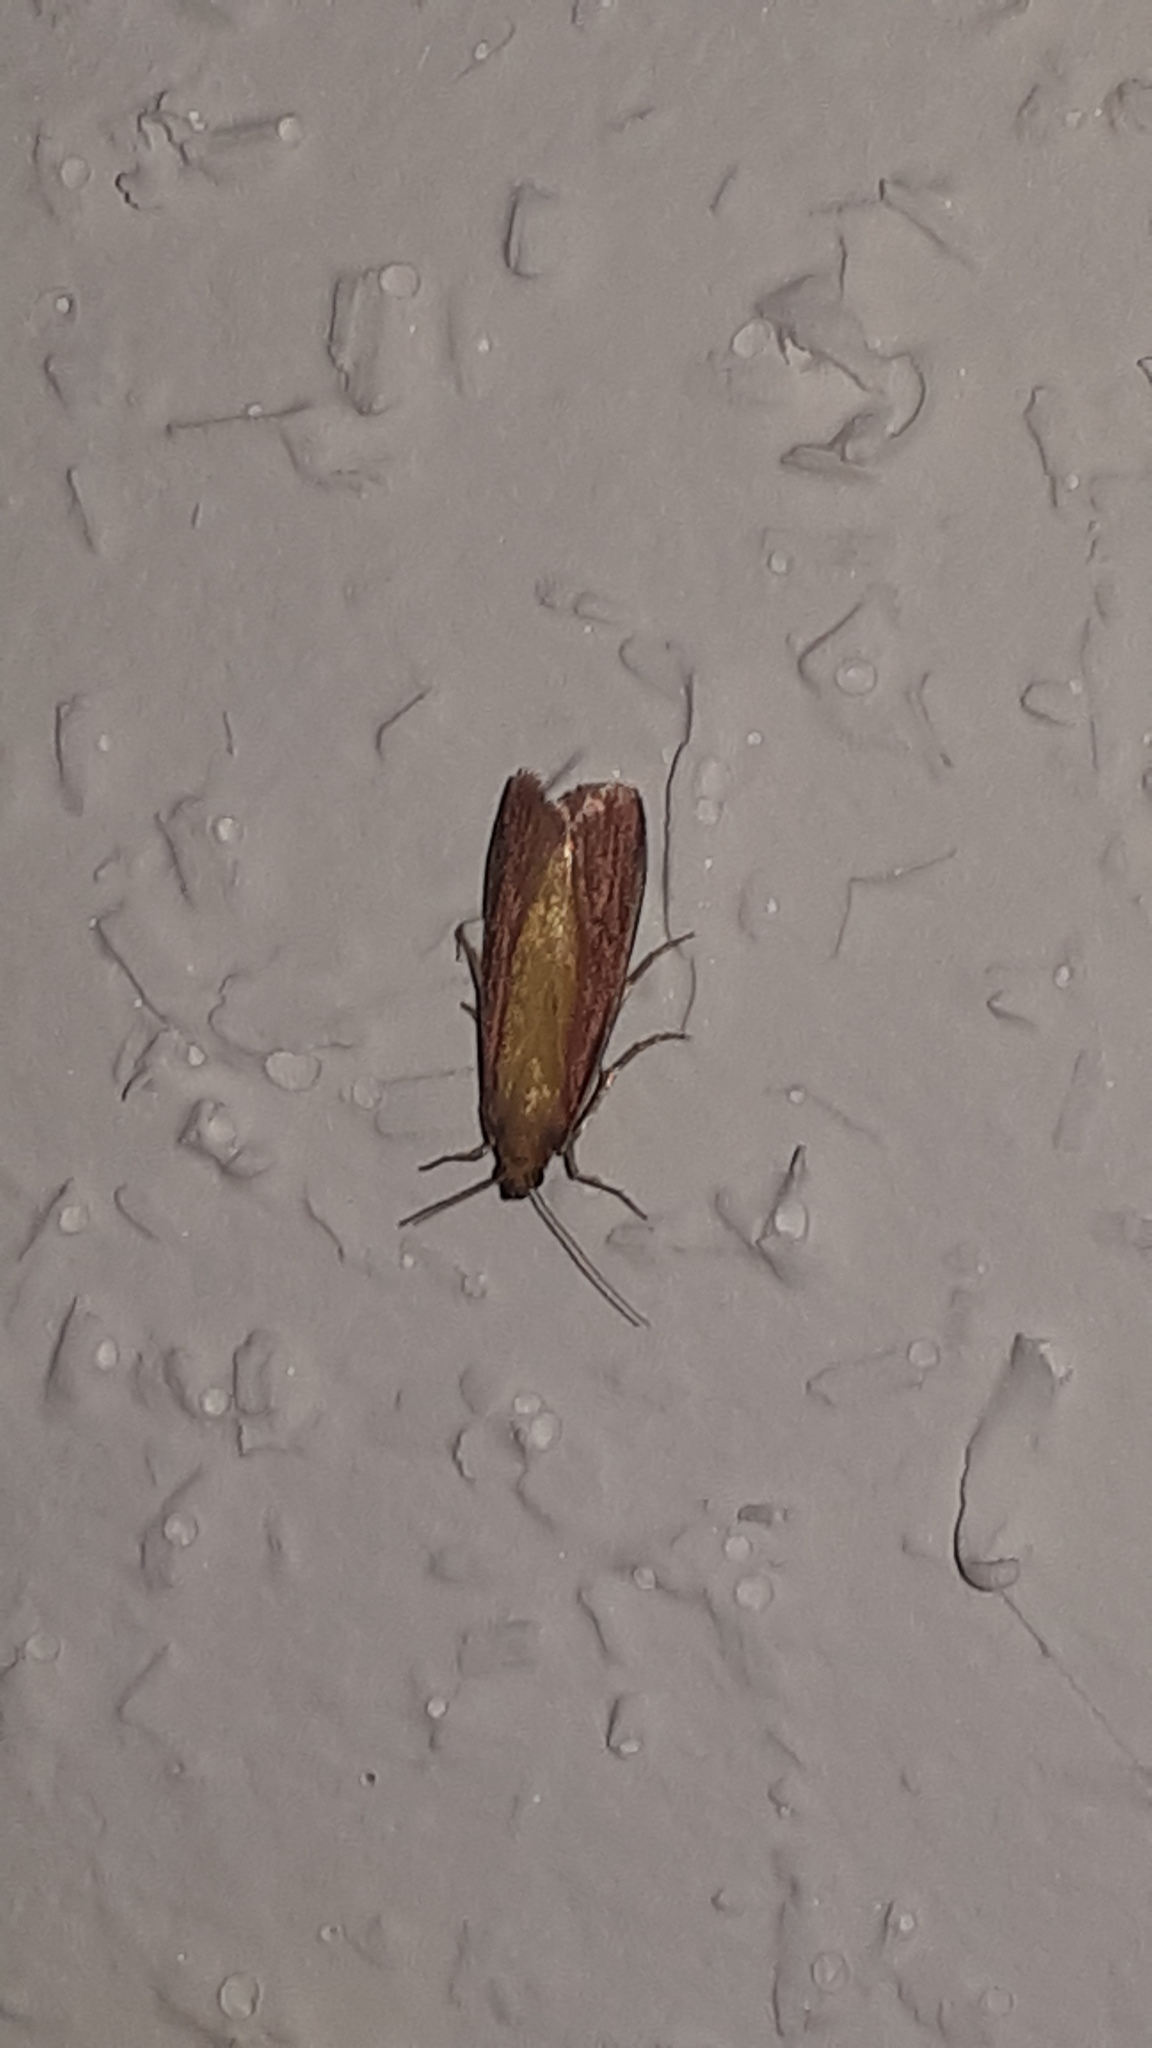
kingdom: Animalia
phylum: Arthropoda
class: Insecta
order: Lepidoptera
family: Pyralidae
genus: Oncocera
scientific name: Oncocera semirubella
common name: Rosy-striped knot-horn
